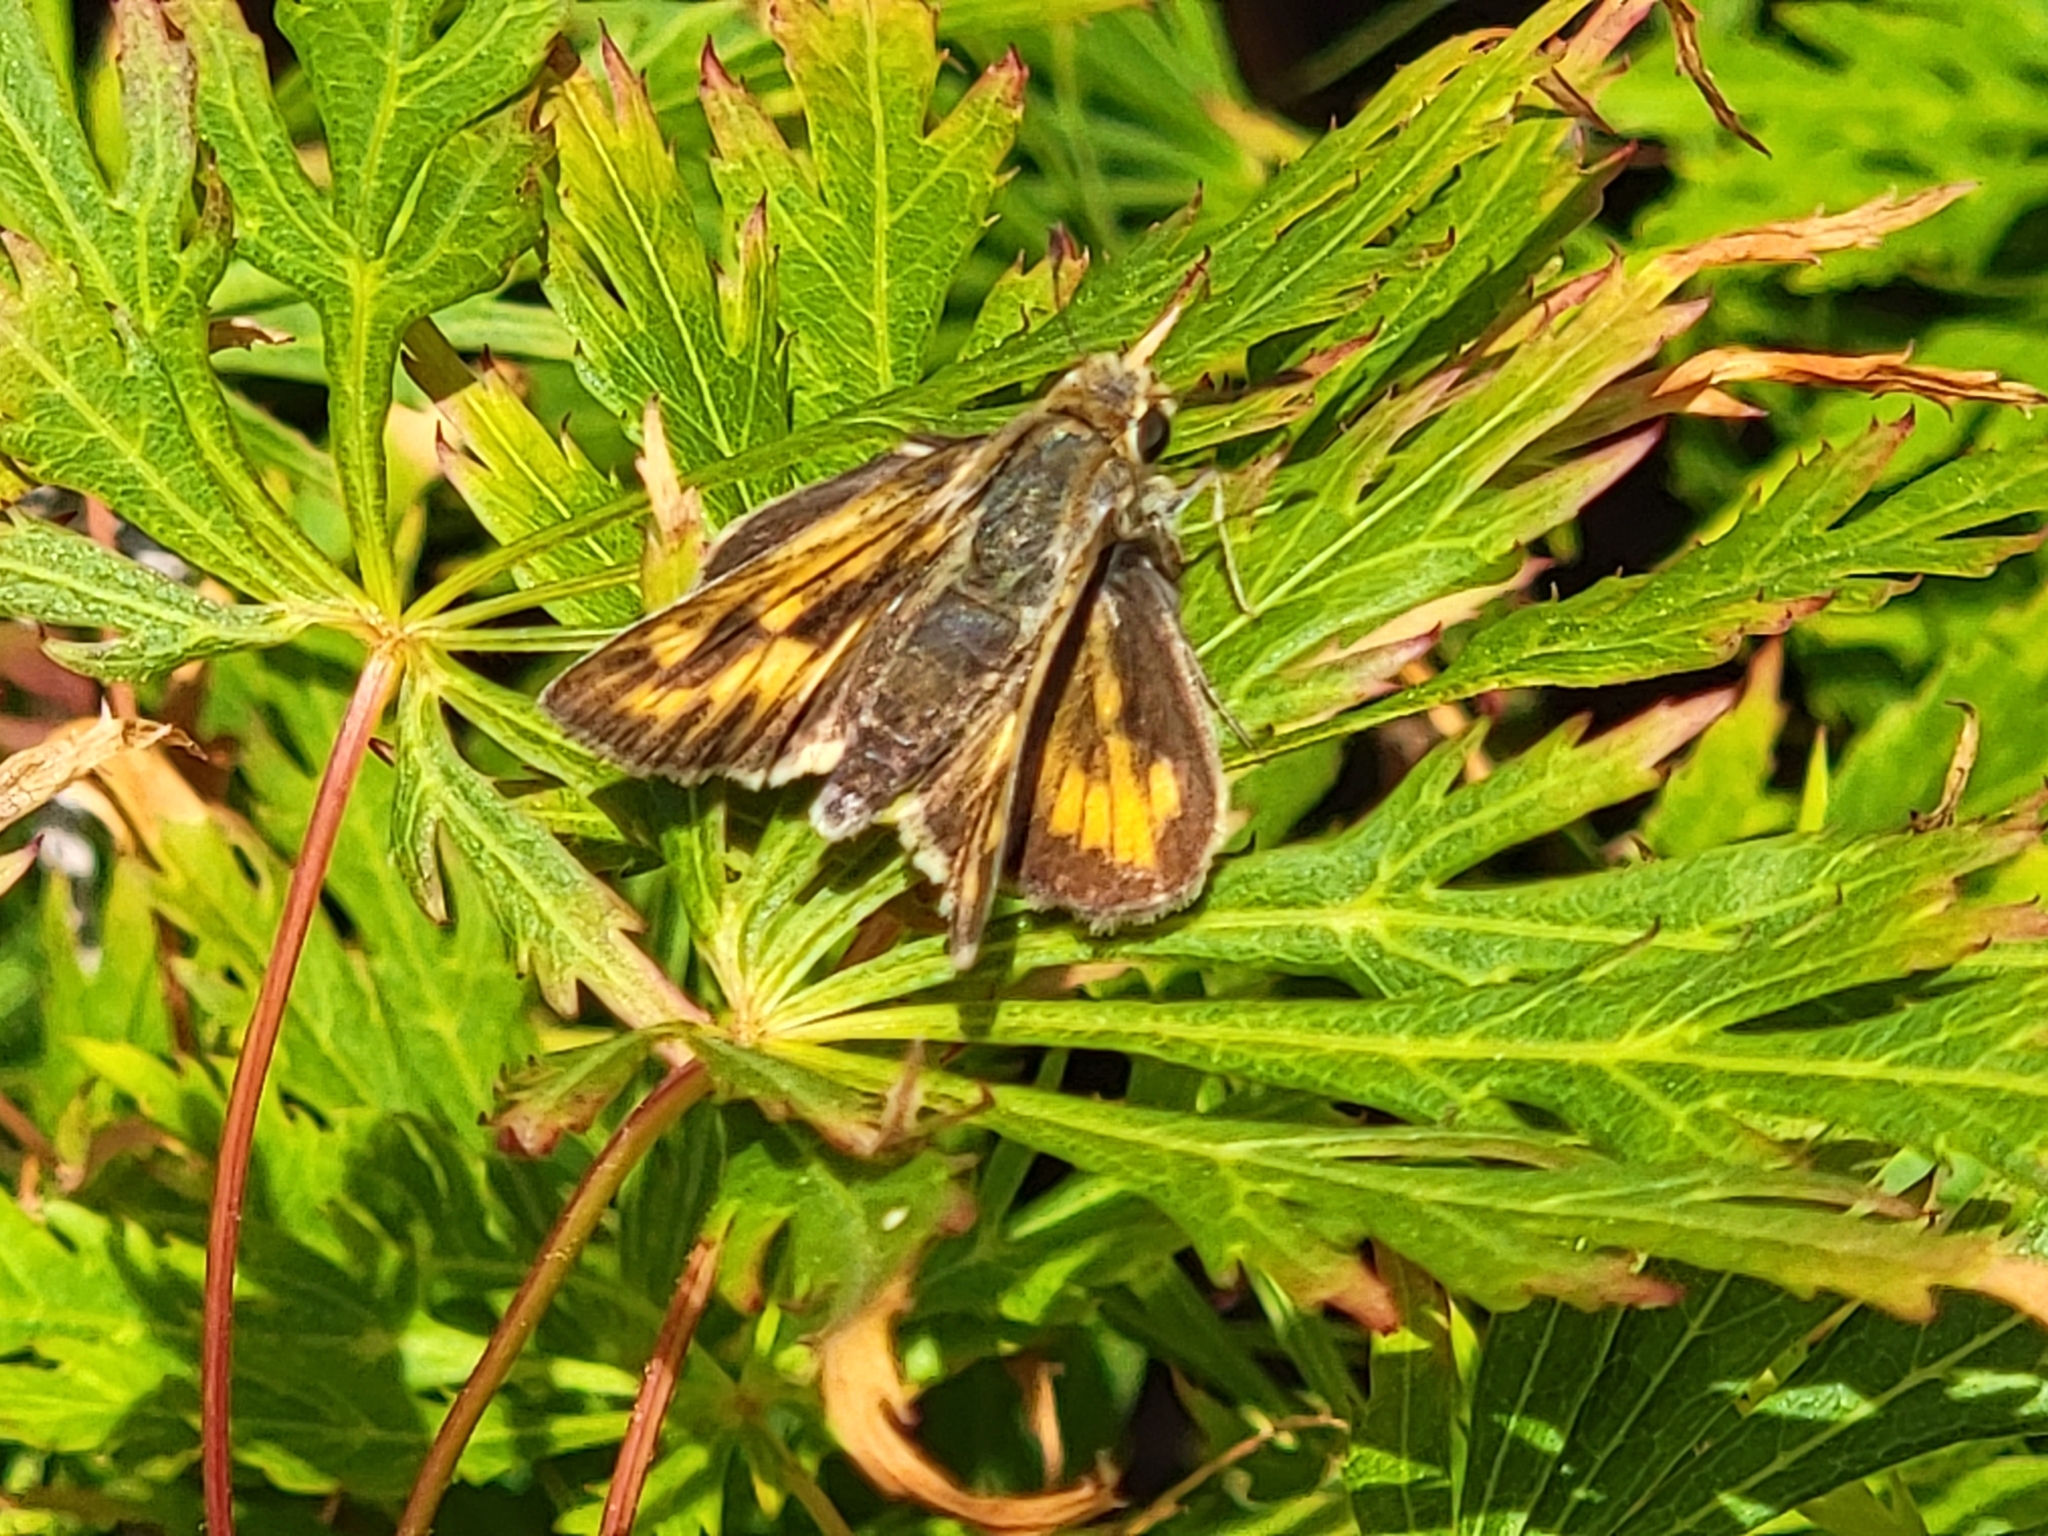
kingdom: Animalia
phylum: Arthropoda
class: Insecta
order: Lepidoptera
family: Hesperiidae
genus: Hylephila
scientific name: Hylephila phyleus
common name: Fiery skipper
